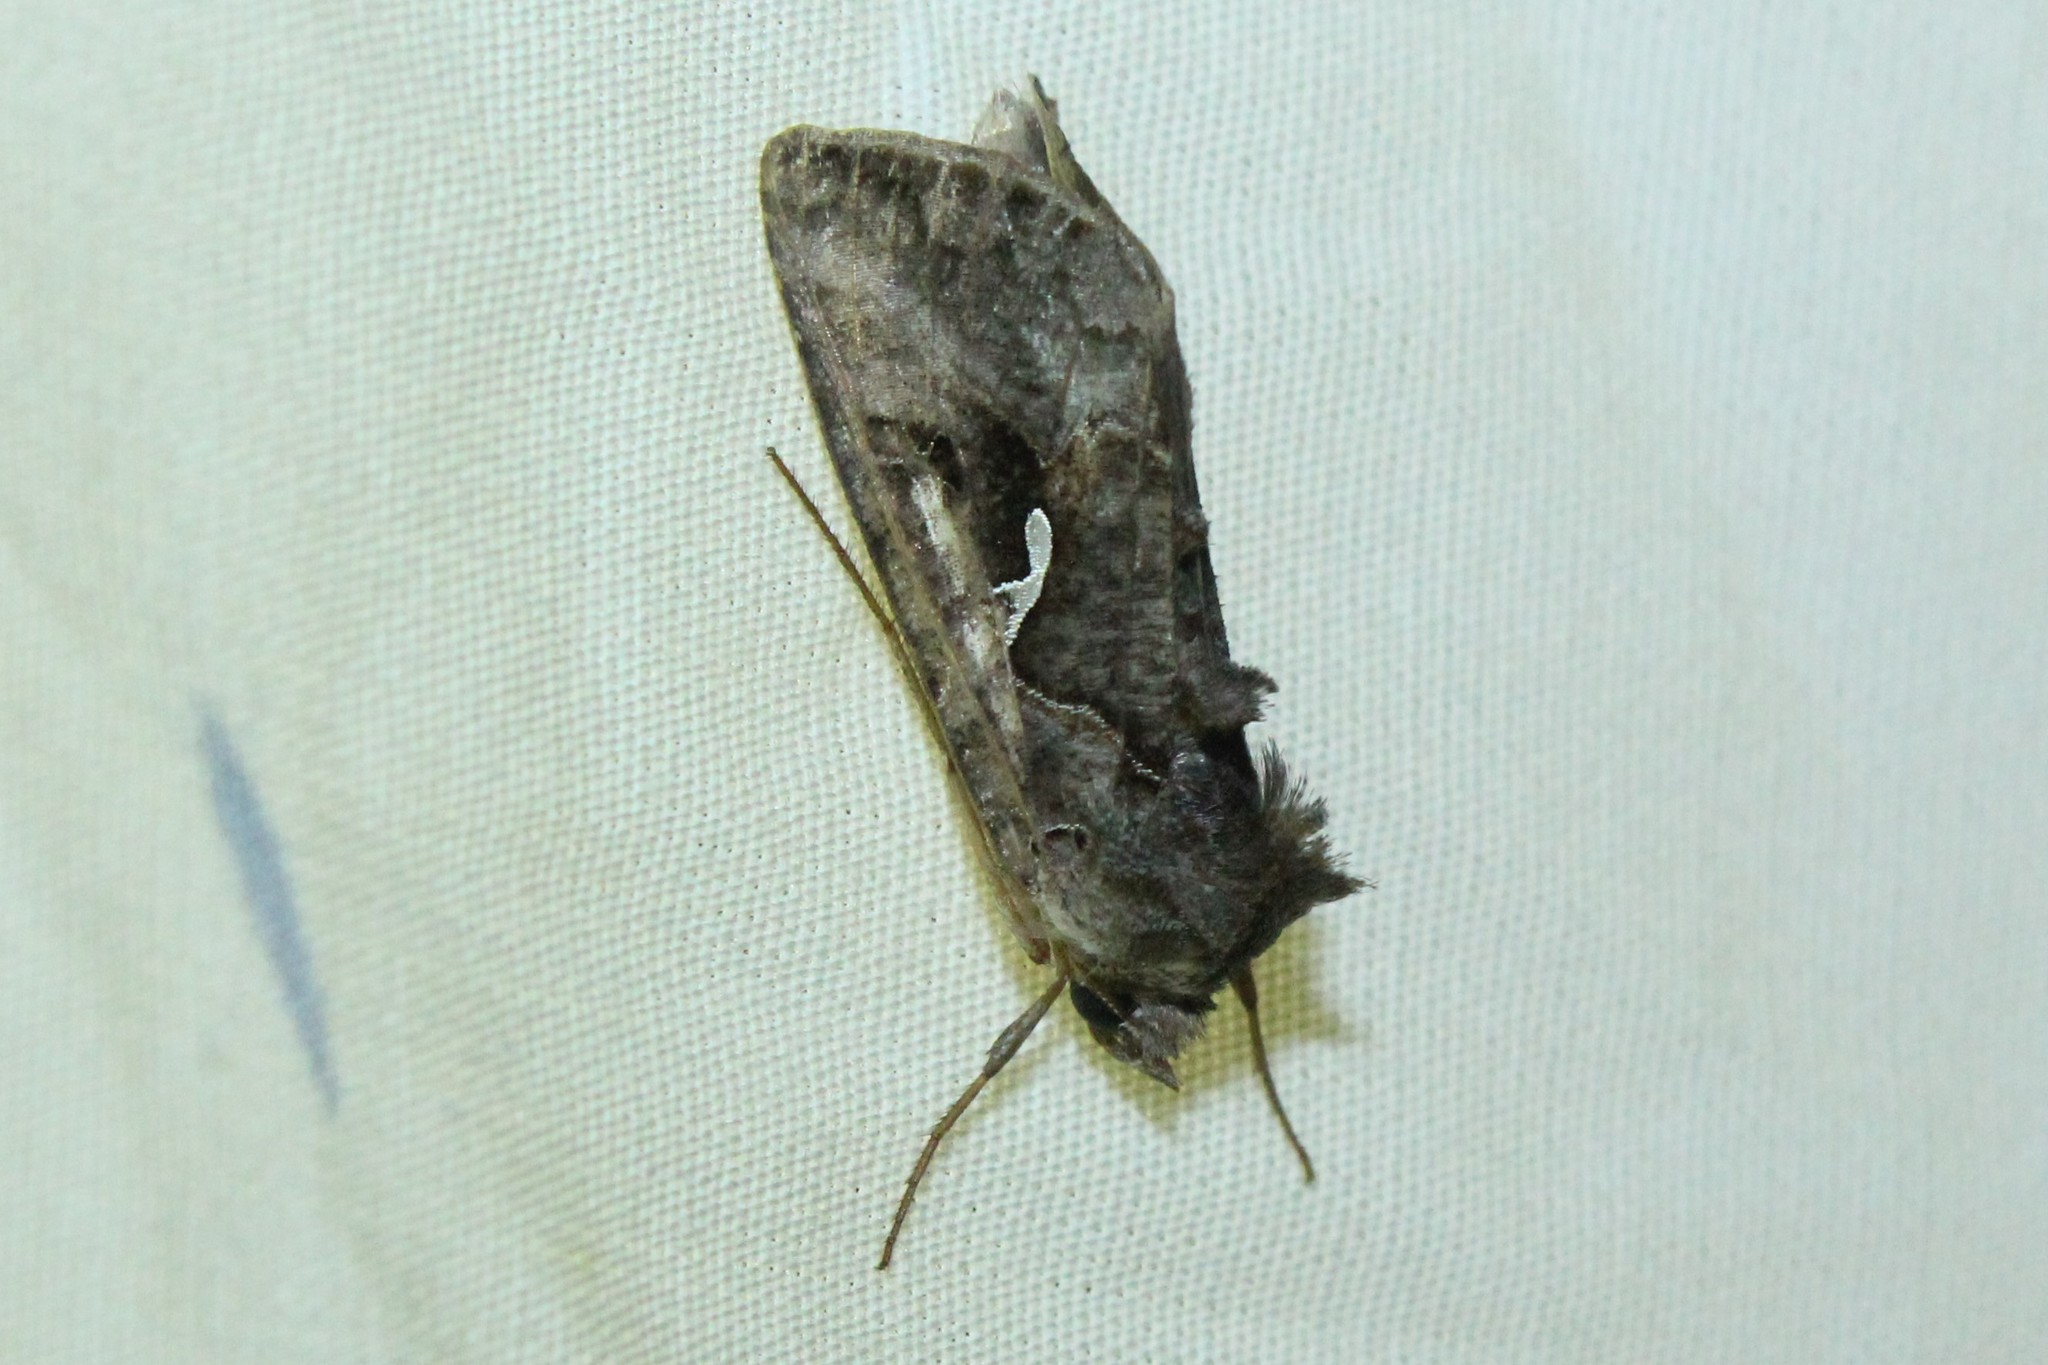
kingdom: Animalia
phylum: Arthropoda
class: Insecta
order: Lepidoptera
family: Noctuidae
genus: Autographa
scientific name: Autographa precationis
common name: Common looper moth
